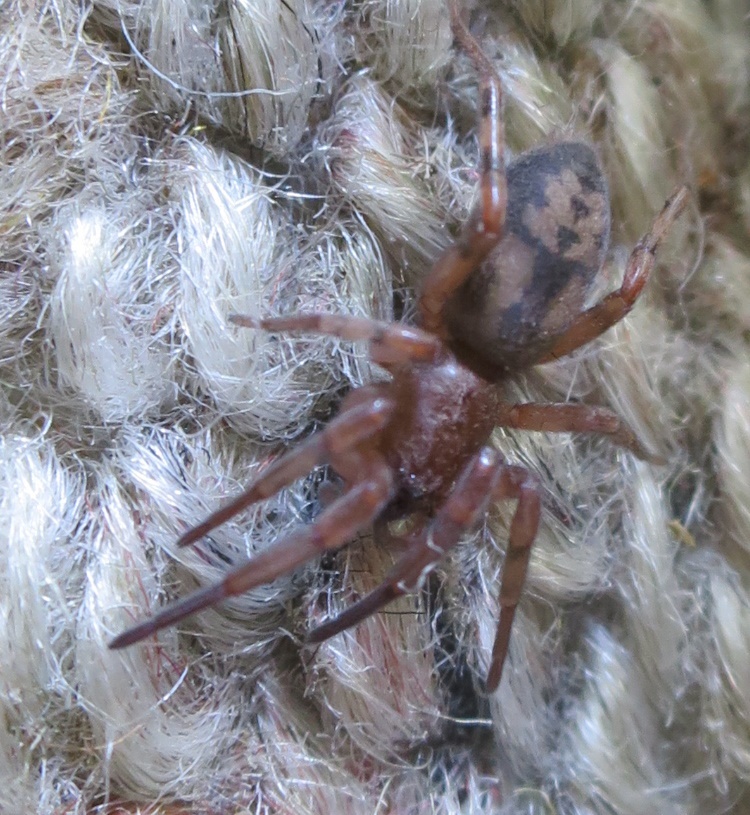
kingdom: Animalia
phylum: Arthropoda
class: Arachnida
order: Araneae
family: Gnaphosidae
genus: Intruda
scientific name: Intruda signata
